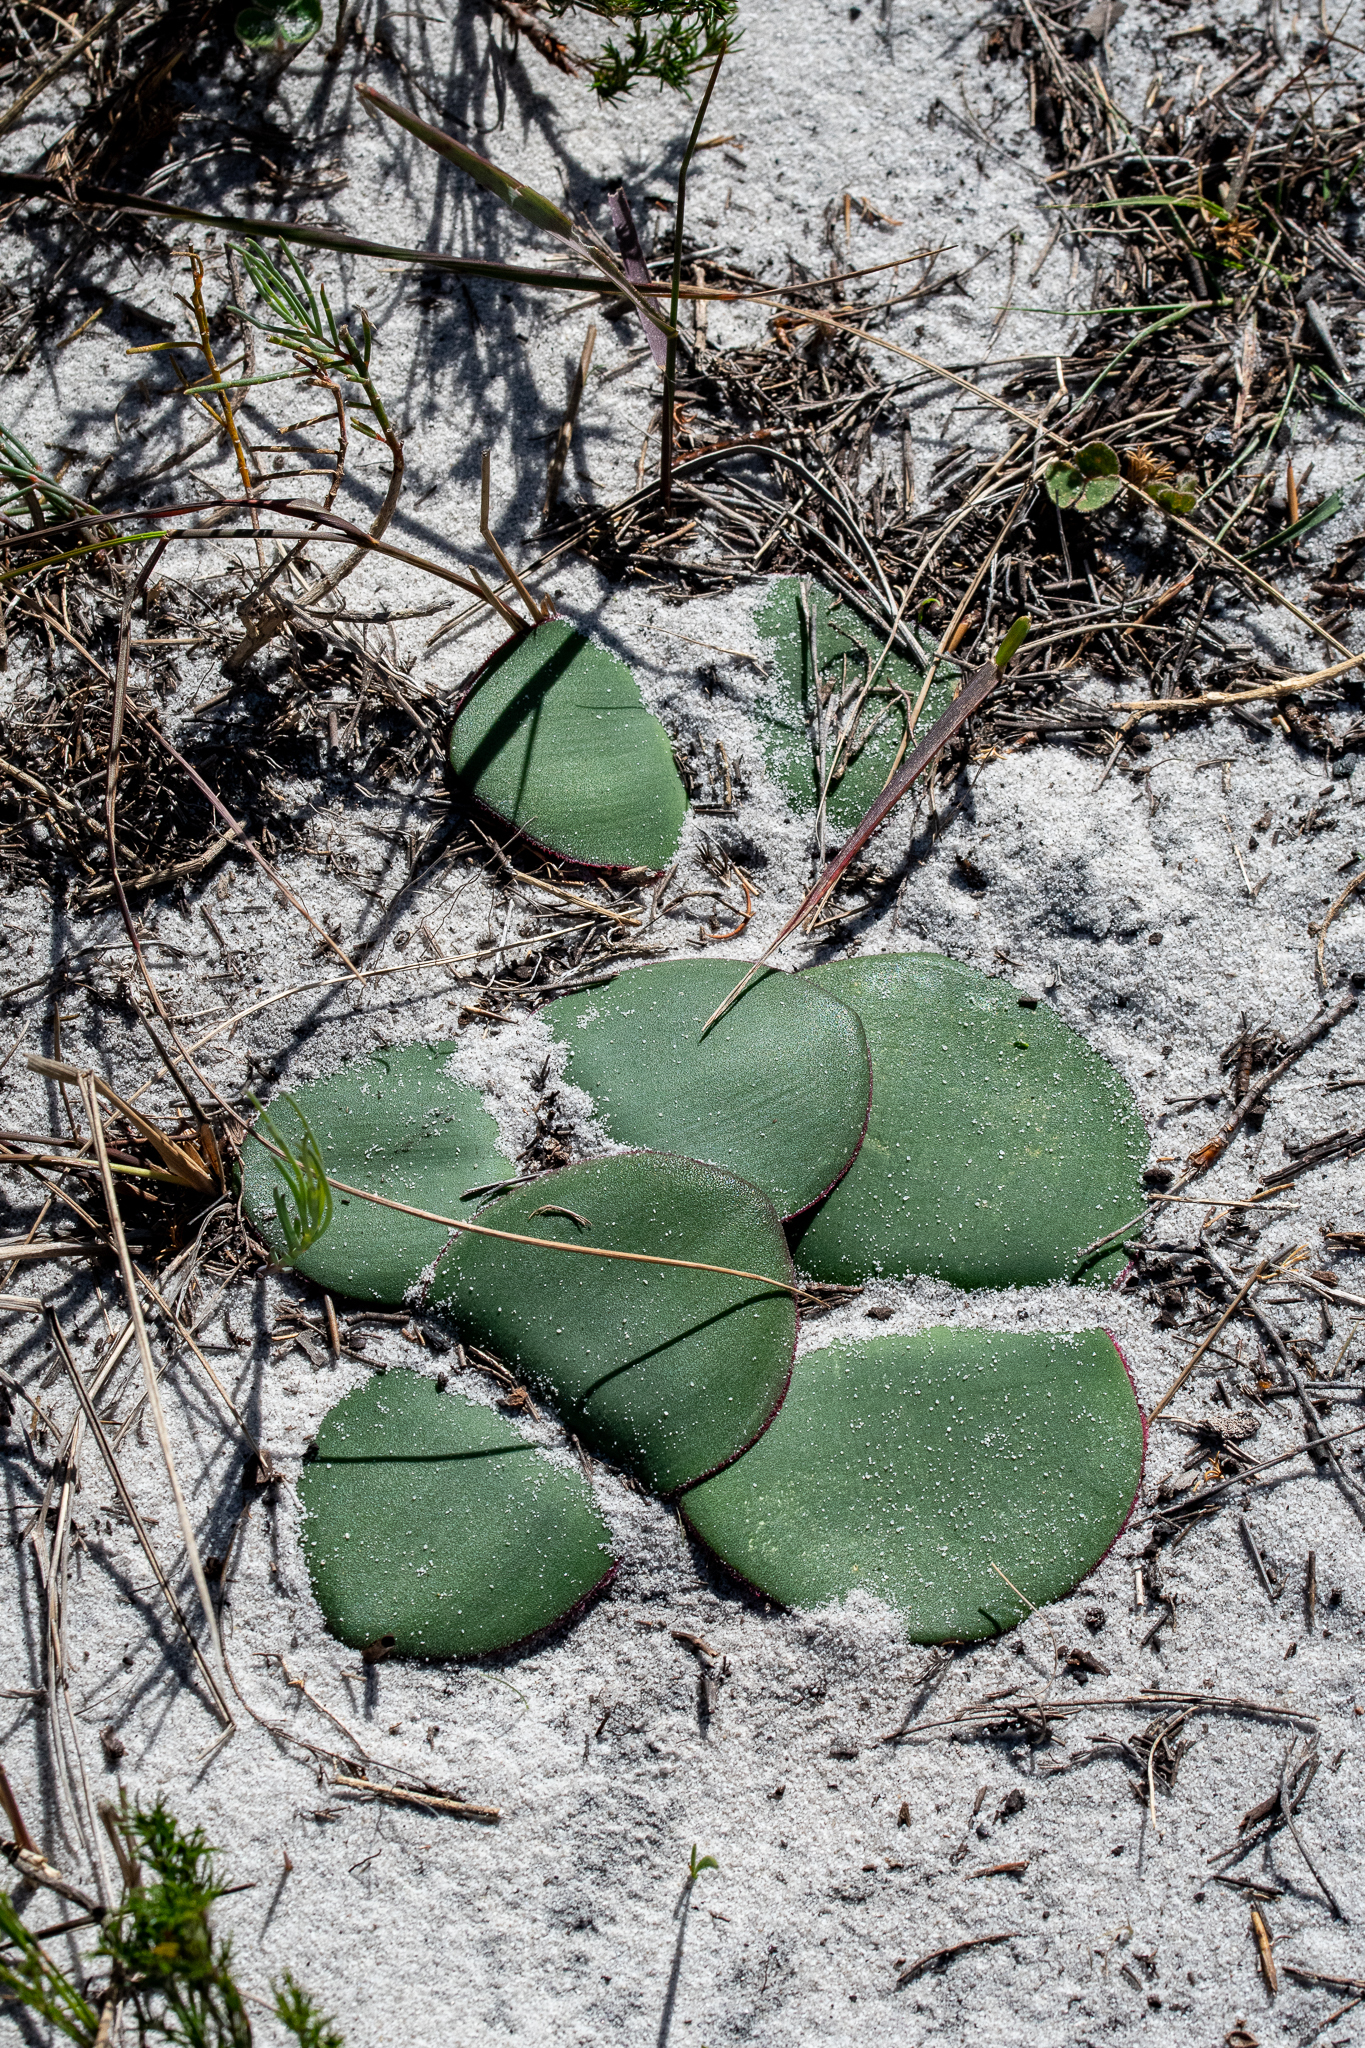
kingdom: Plantae
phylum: Tracheophyta
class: Liliopsida
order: Asparagales
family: Amaryllidaceae
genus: Haemanthus
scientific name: Haemanthus sanguineus
